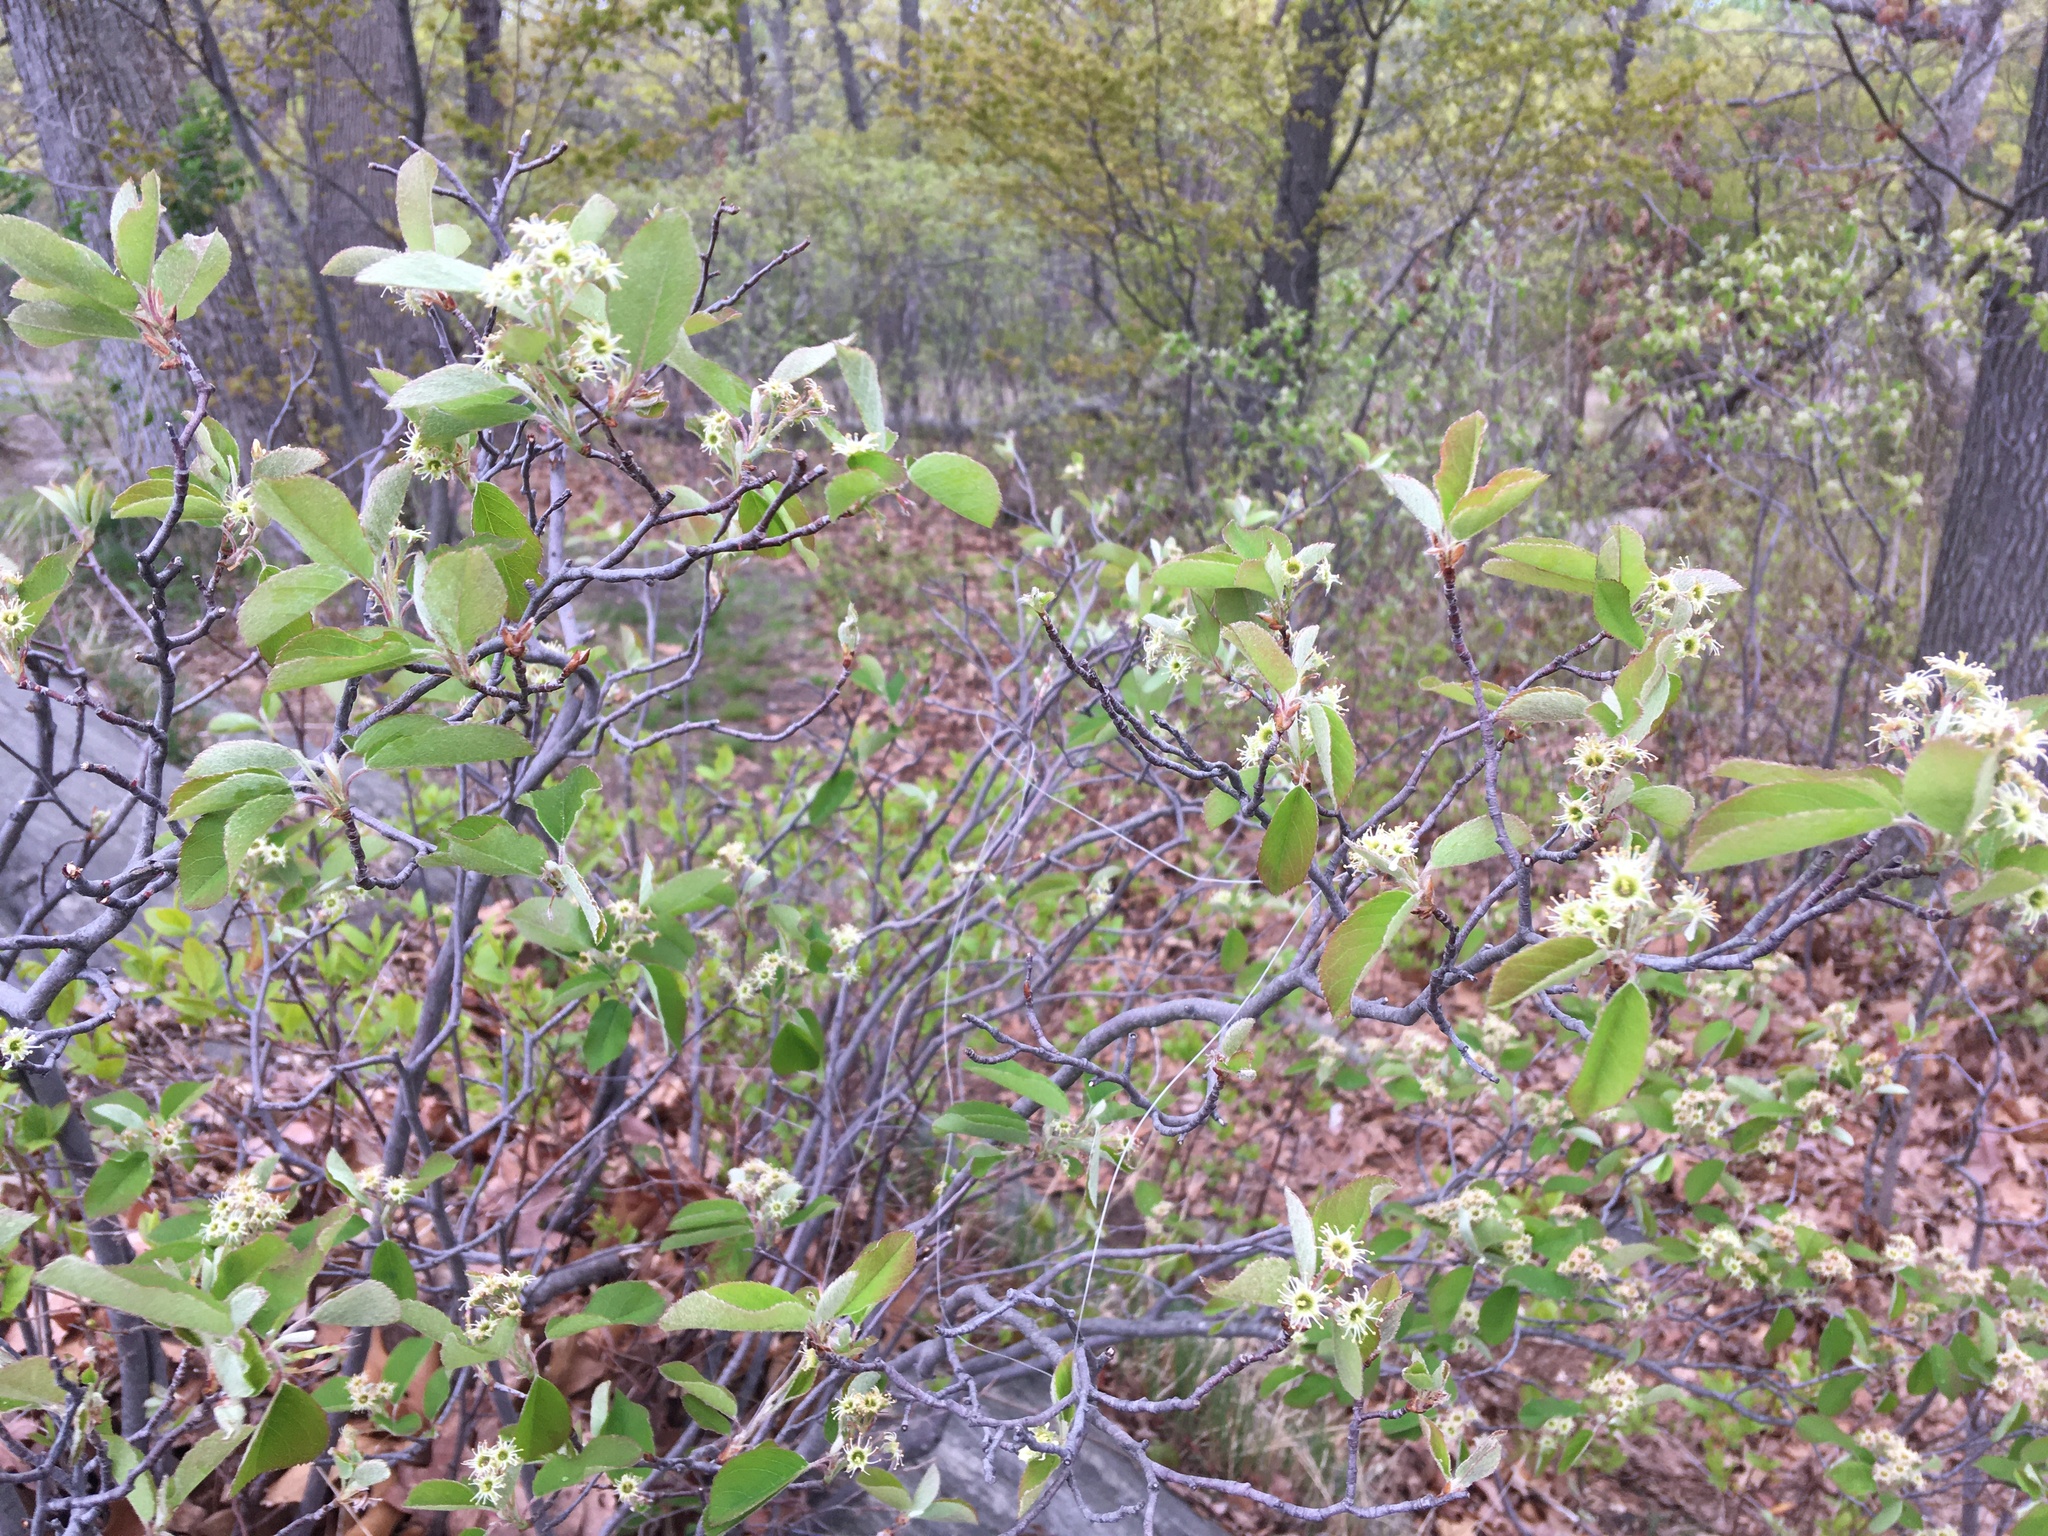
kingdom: Plantae
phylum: Tracheophyta
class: Magnoliopsida
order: Rosales
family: Rosaceae
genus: Amelanchier
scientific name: Amelanchier nantucketensis
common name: Nantucket shadbush
